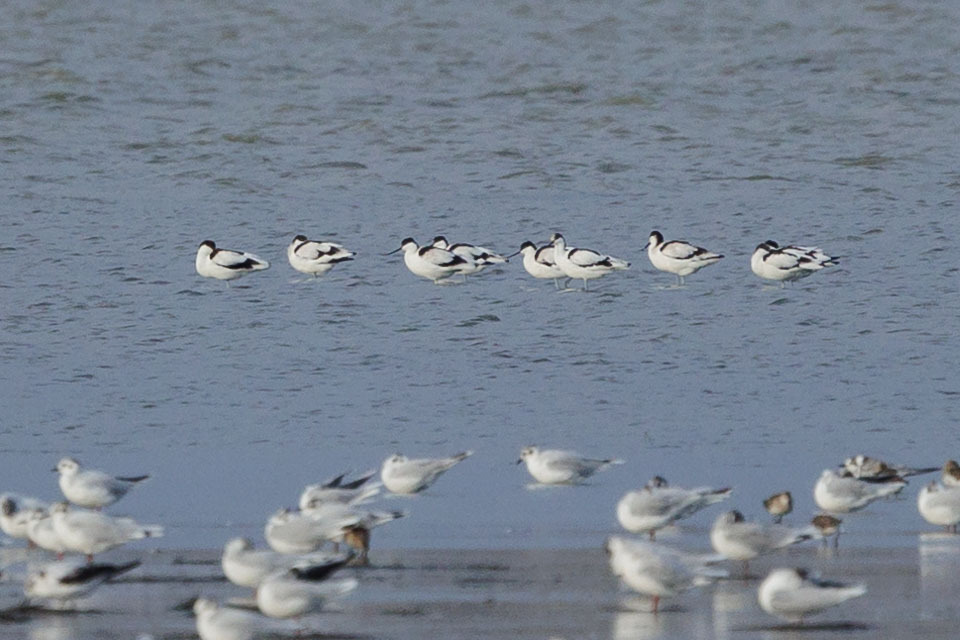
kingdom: Animalia
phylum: Chordata
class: Aves
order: Charadriiformes
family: Recurvirostridae
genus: Recurvirostra
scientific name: Recurvirostra avosetta
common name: Pied avocet
